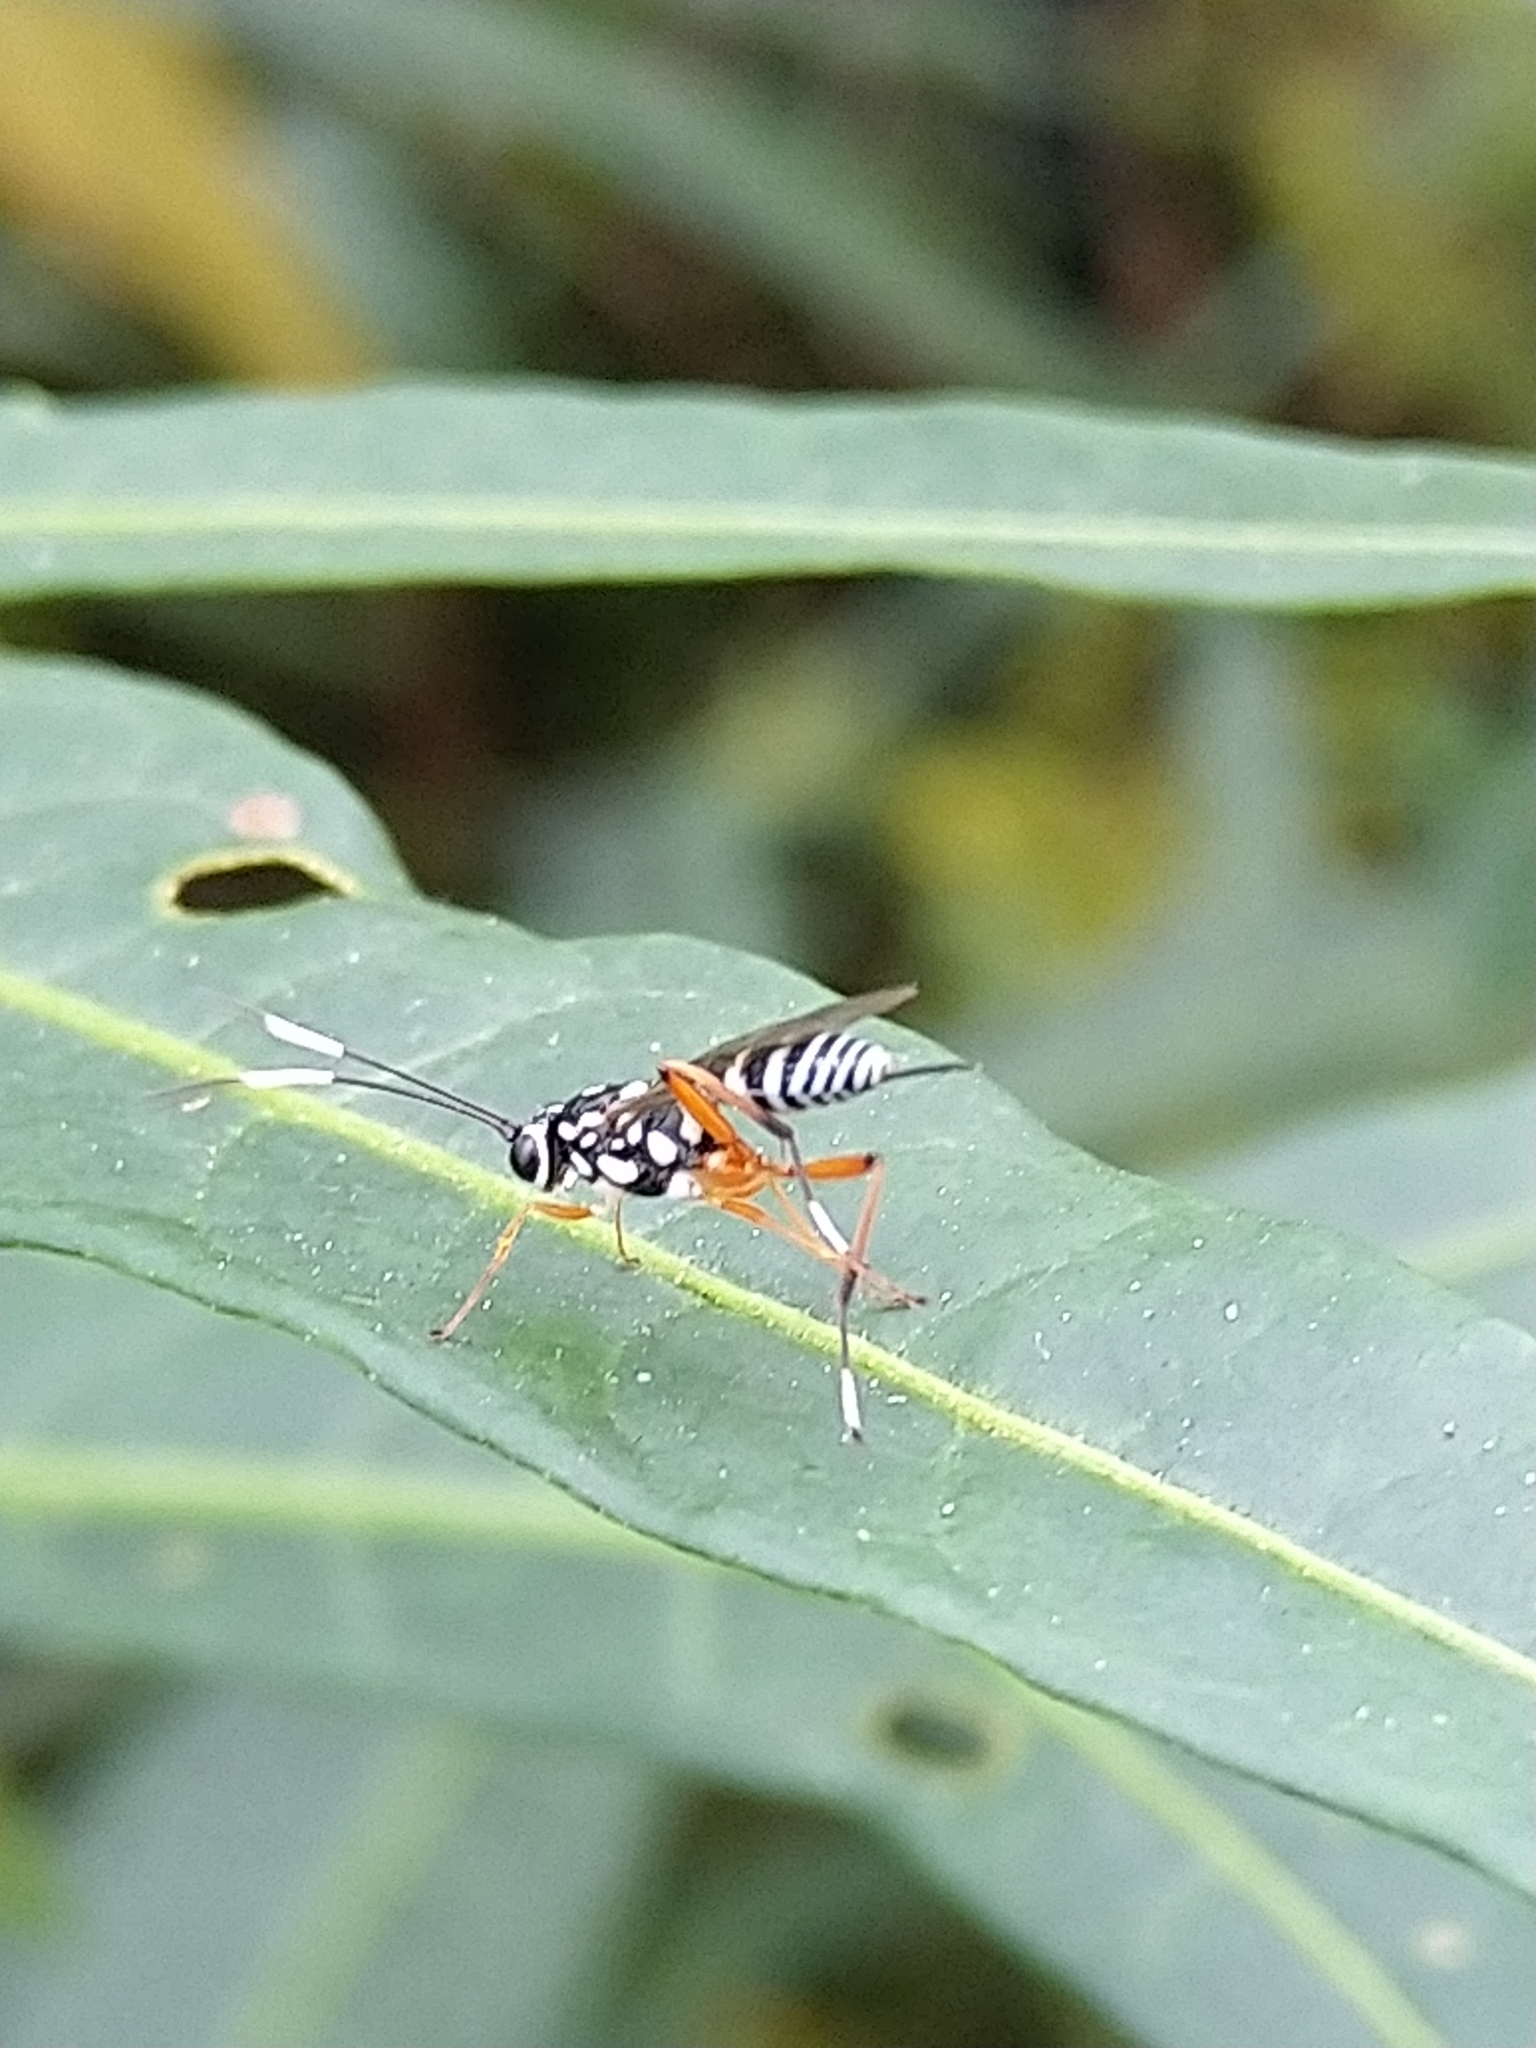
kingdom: Animalia
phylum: Arthropoda
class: Insecta
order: Hymenoptera
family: Ichneumonidae
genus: Glabridorsum
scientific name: Glabridorsum stokesii
